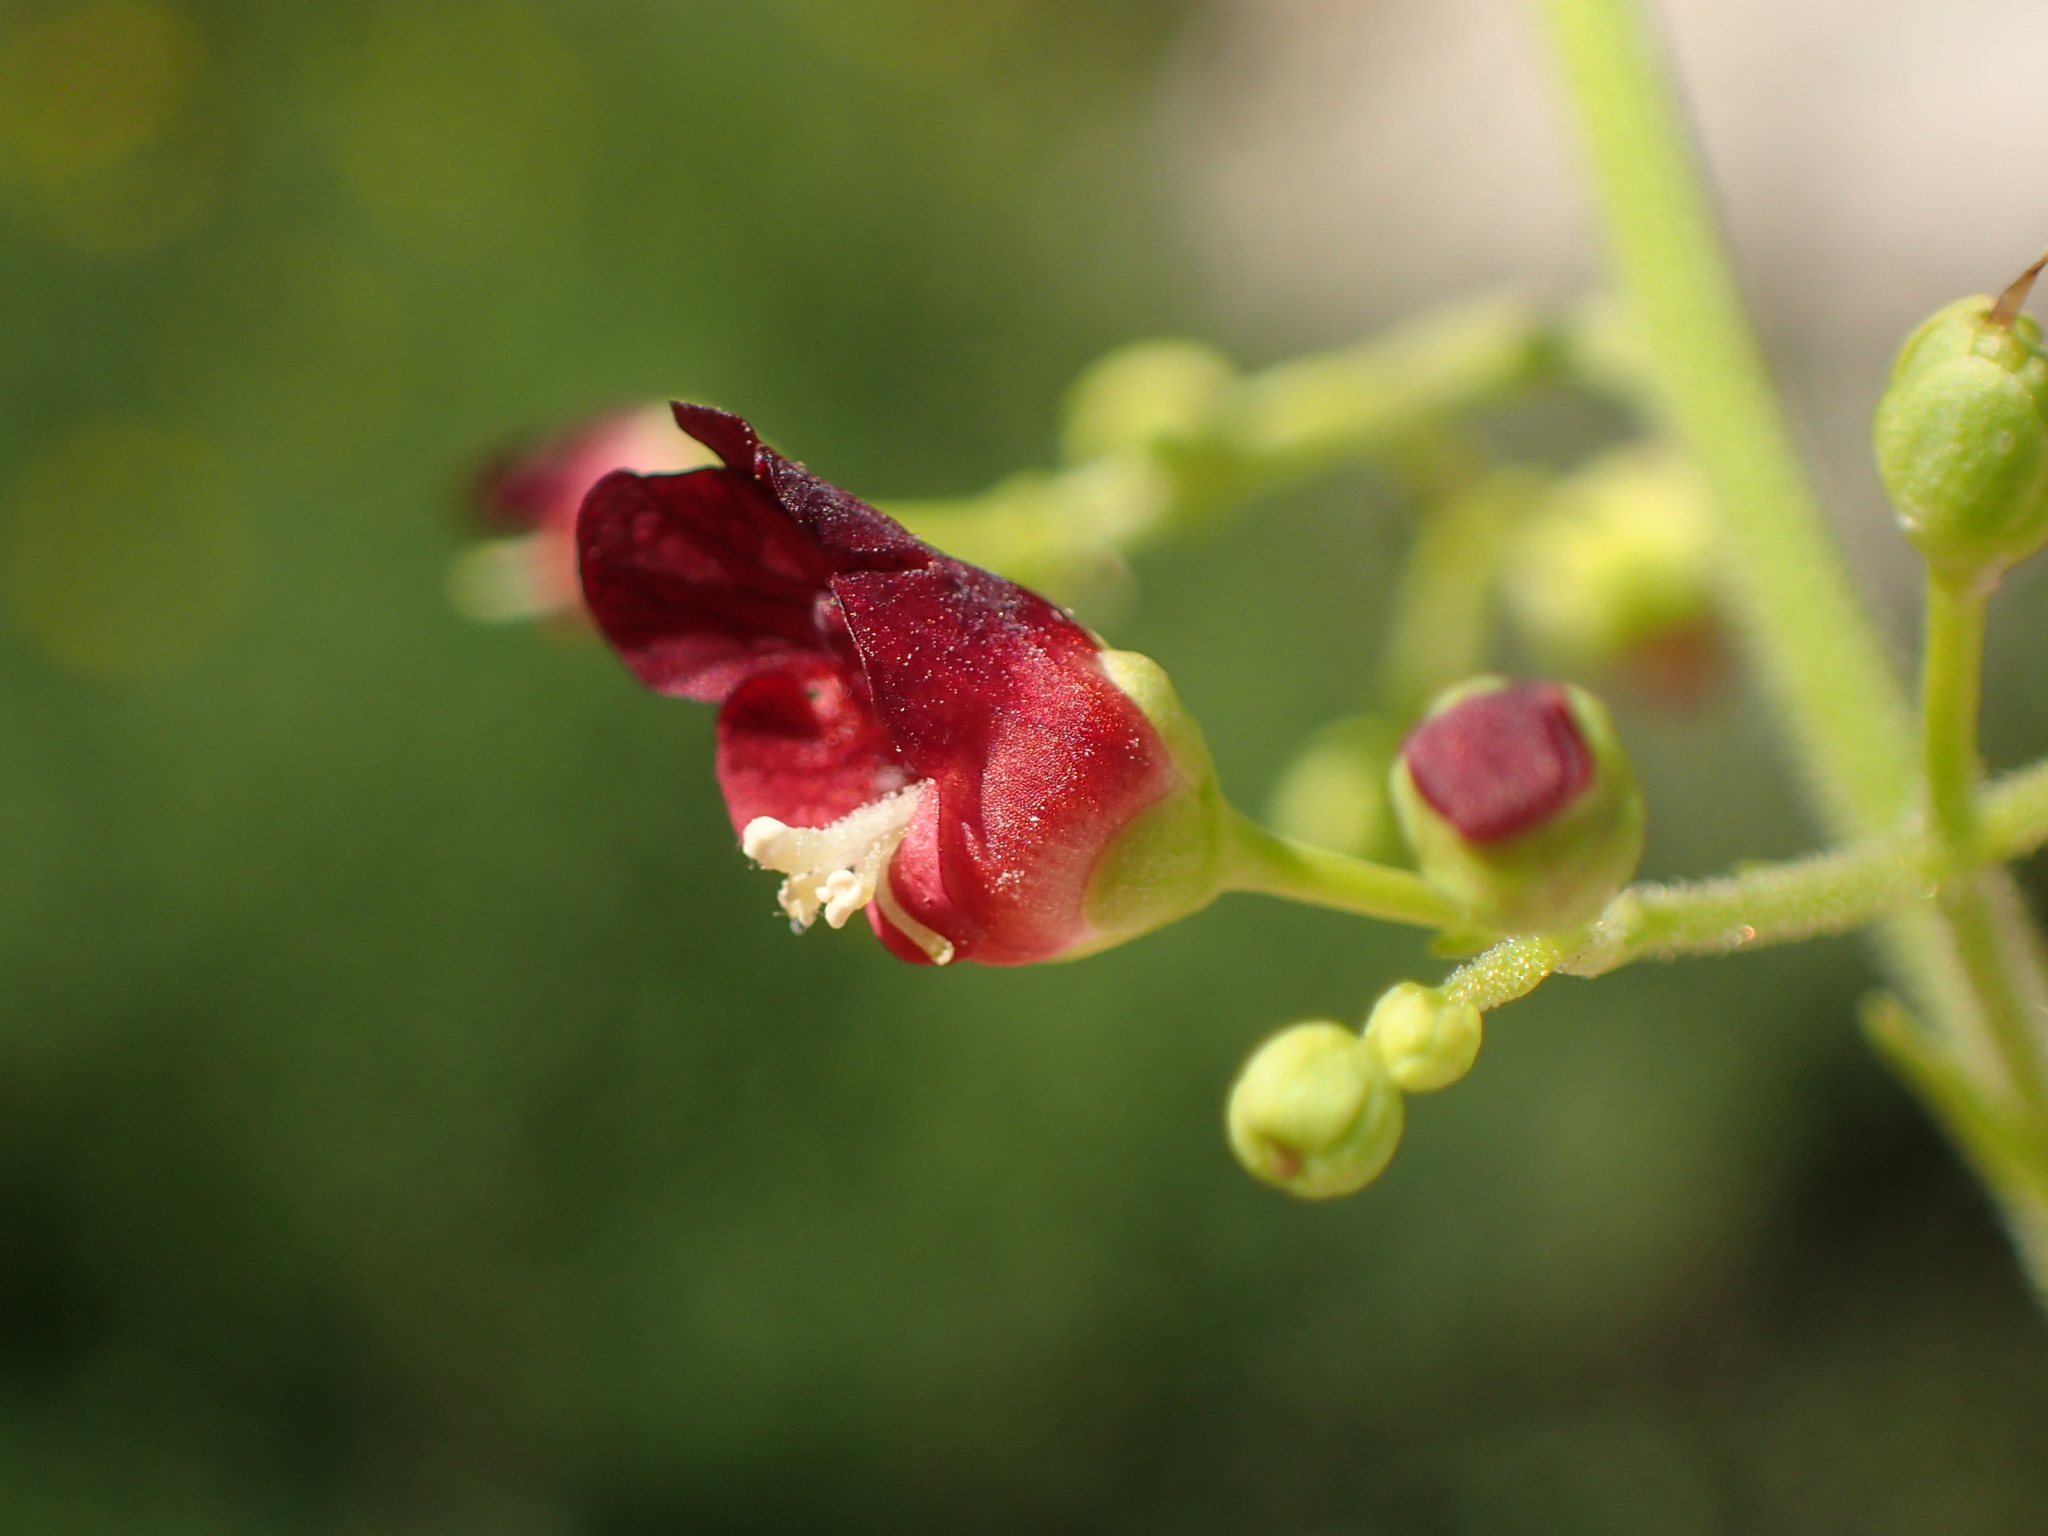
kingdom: Plantae
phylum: Tracheophyta
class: Magnoliopsida
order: Lamiales
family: Scrophulariaceae
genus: Scrophularia
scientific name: Scrophularia californica
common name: California figwort
